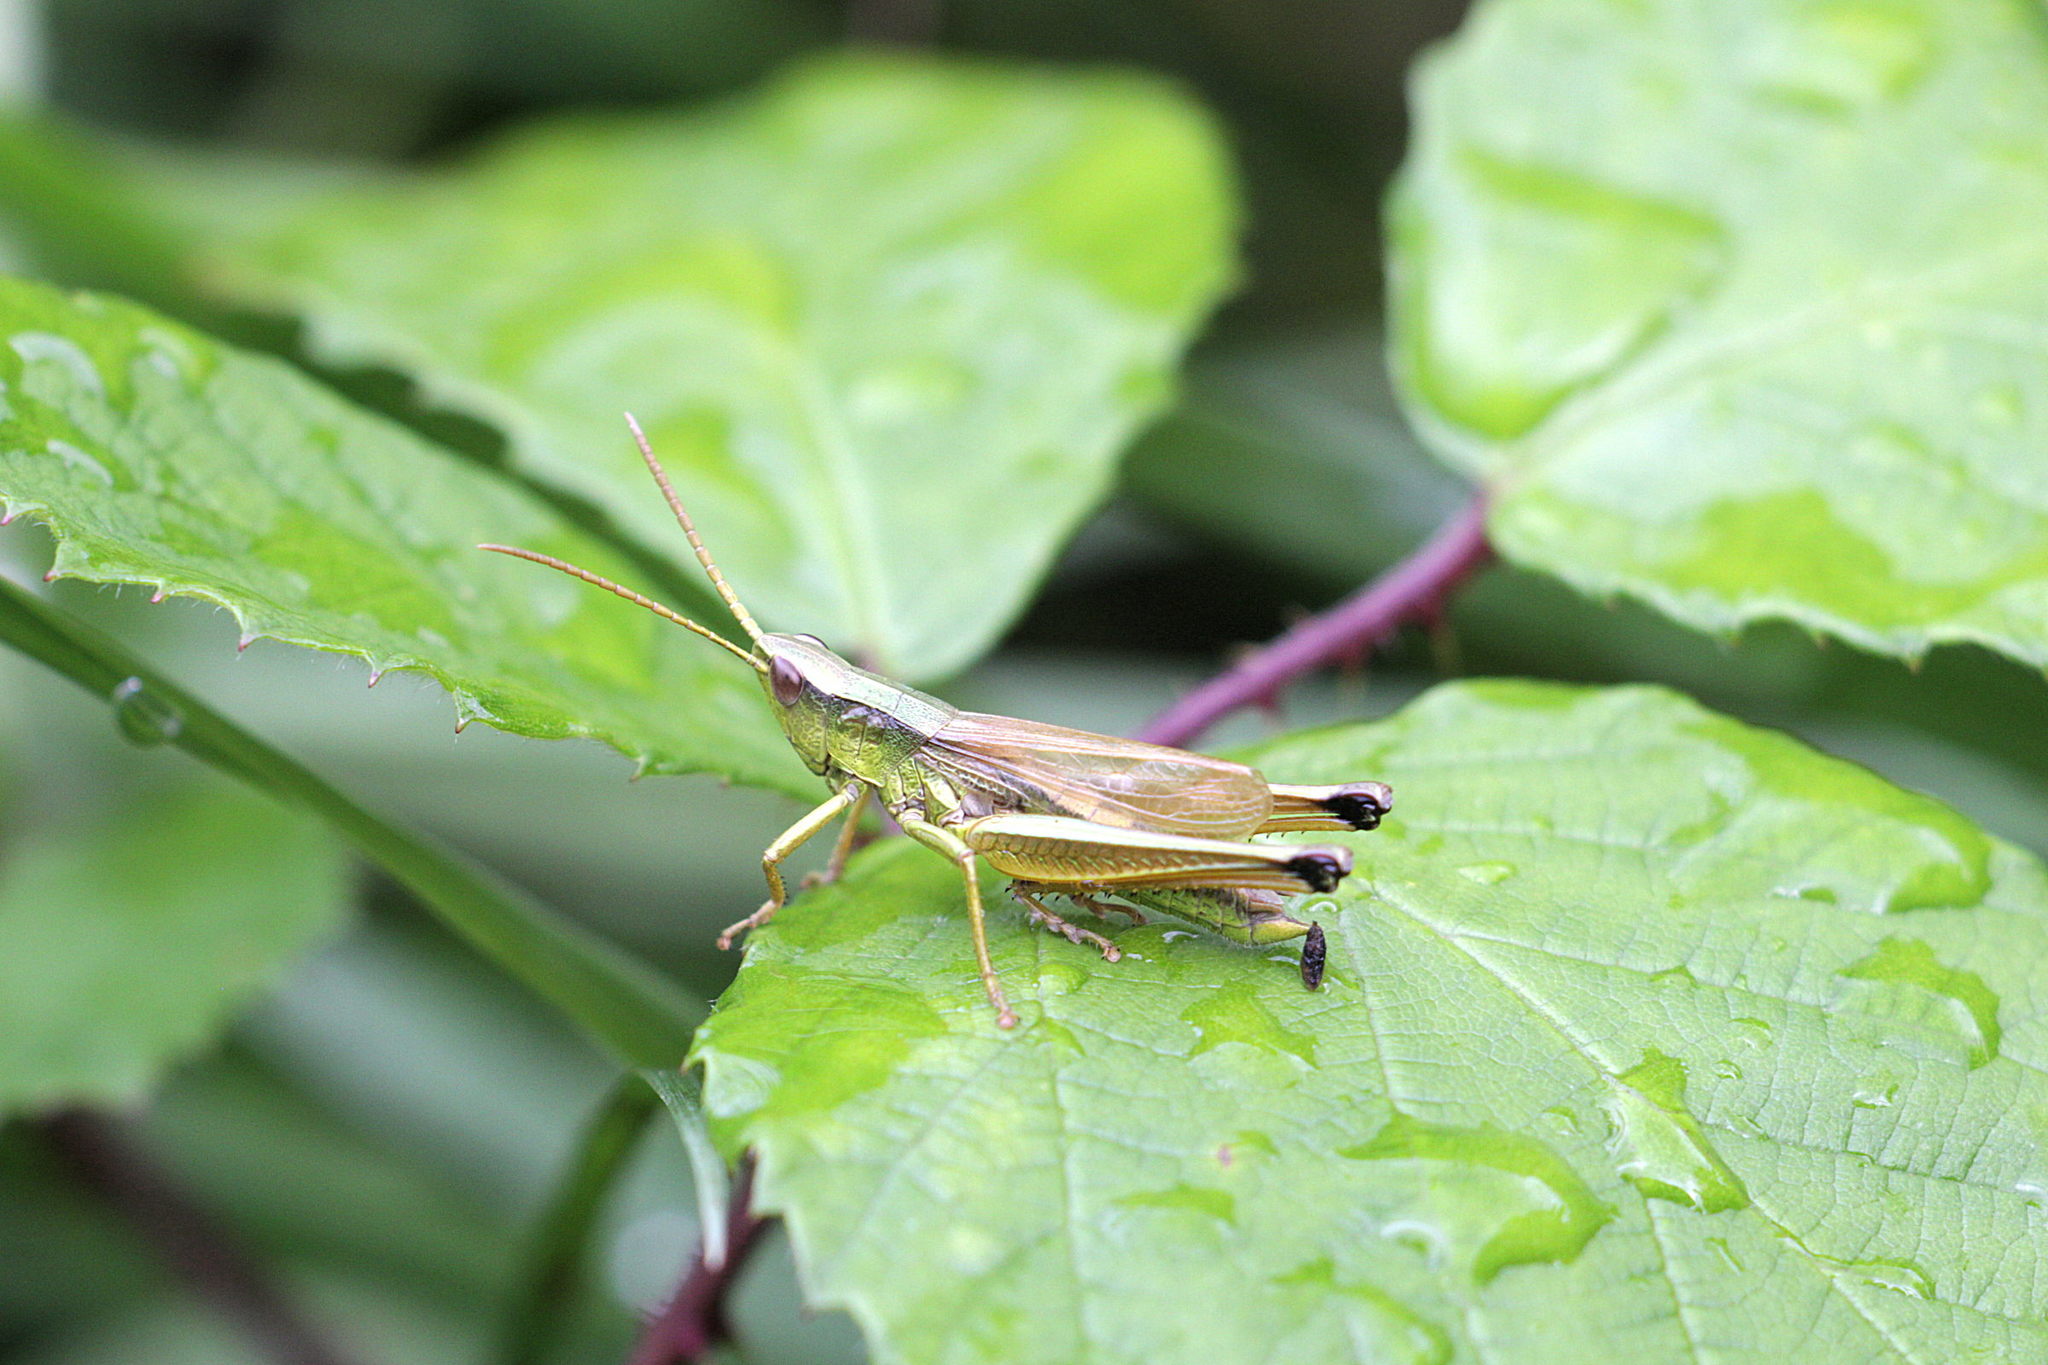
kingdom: Animalia
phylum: Arthropoda
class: Insecta
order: Orthoptera
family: Acrididae
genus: Chrysochraon
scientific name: Chrysochraon dispar
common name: Large gold grasshopper
